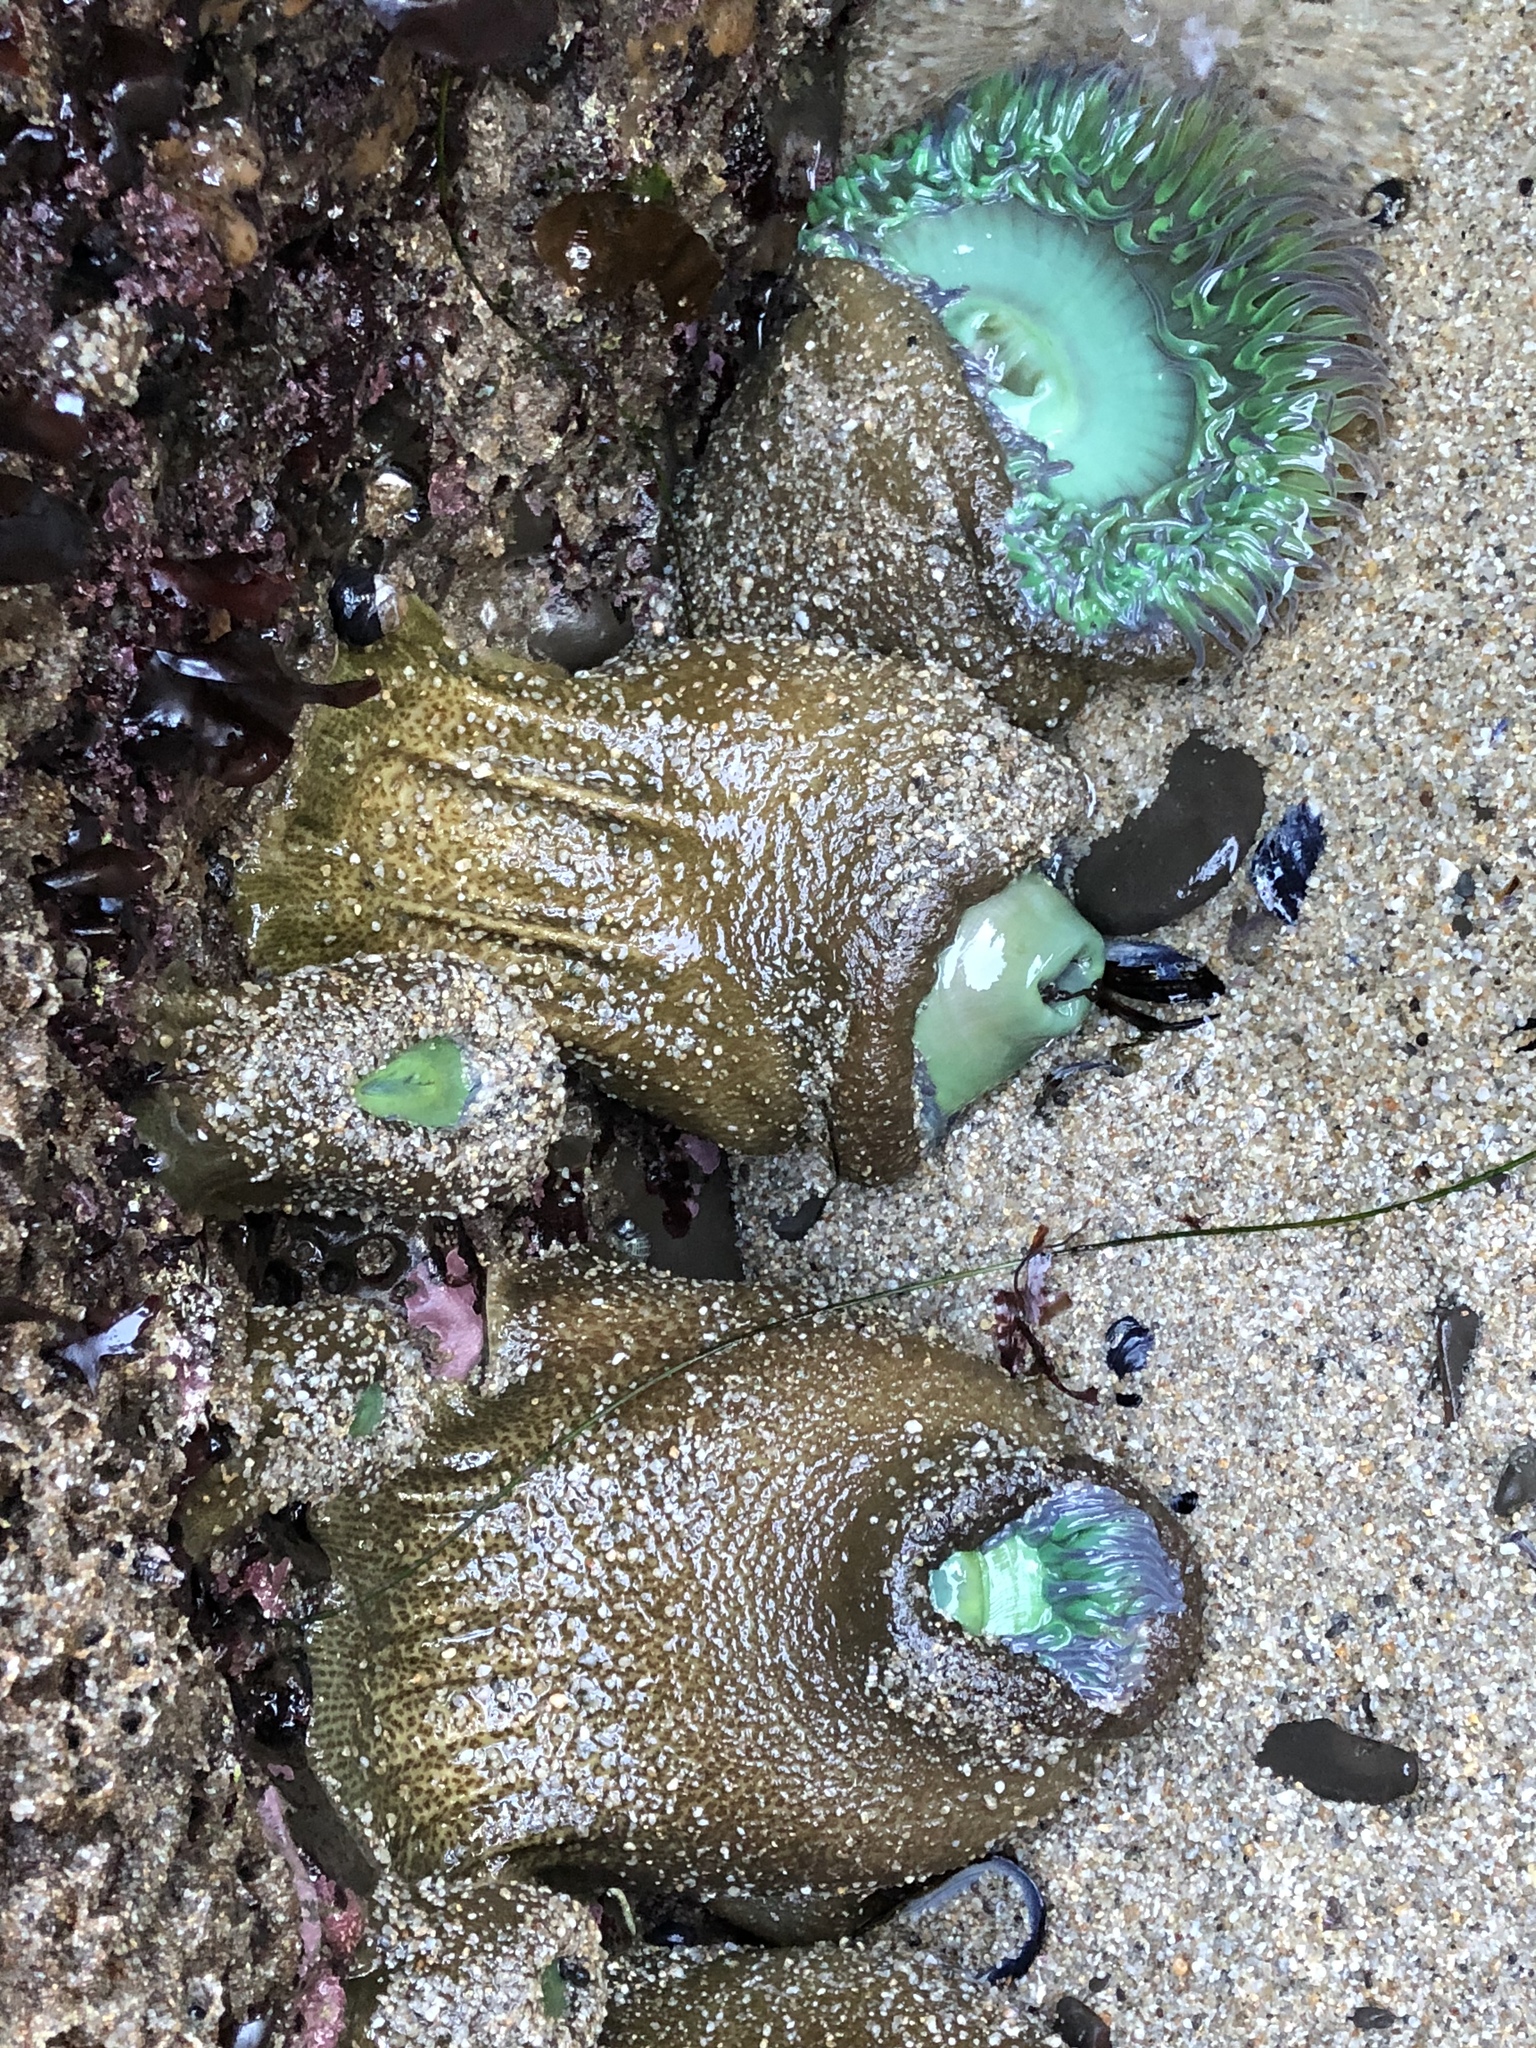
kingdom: Animalia
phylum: Cnidaria
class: Anthozoa
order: Actiniaria
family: Actiniidae
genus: Anthopleura
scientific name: Anthopleura xanthogrammica
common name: Giant green anemone
